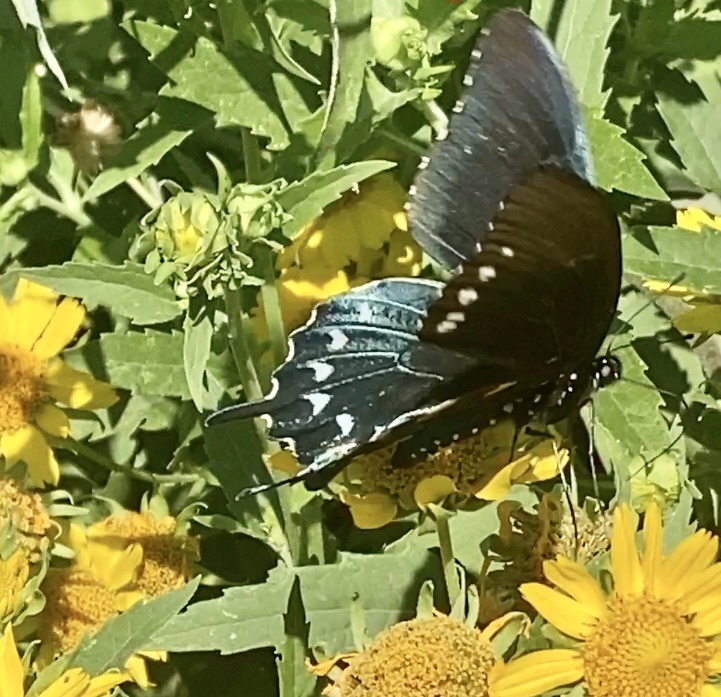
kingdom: Animalia
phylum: Arthropoda
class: Insecta
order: Lepidoptera
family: Papilionidae
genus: Battus
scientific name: Battus philenor
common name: Pipevine swallowtail
